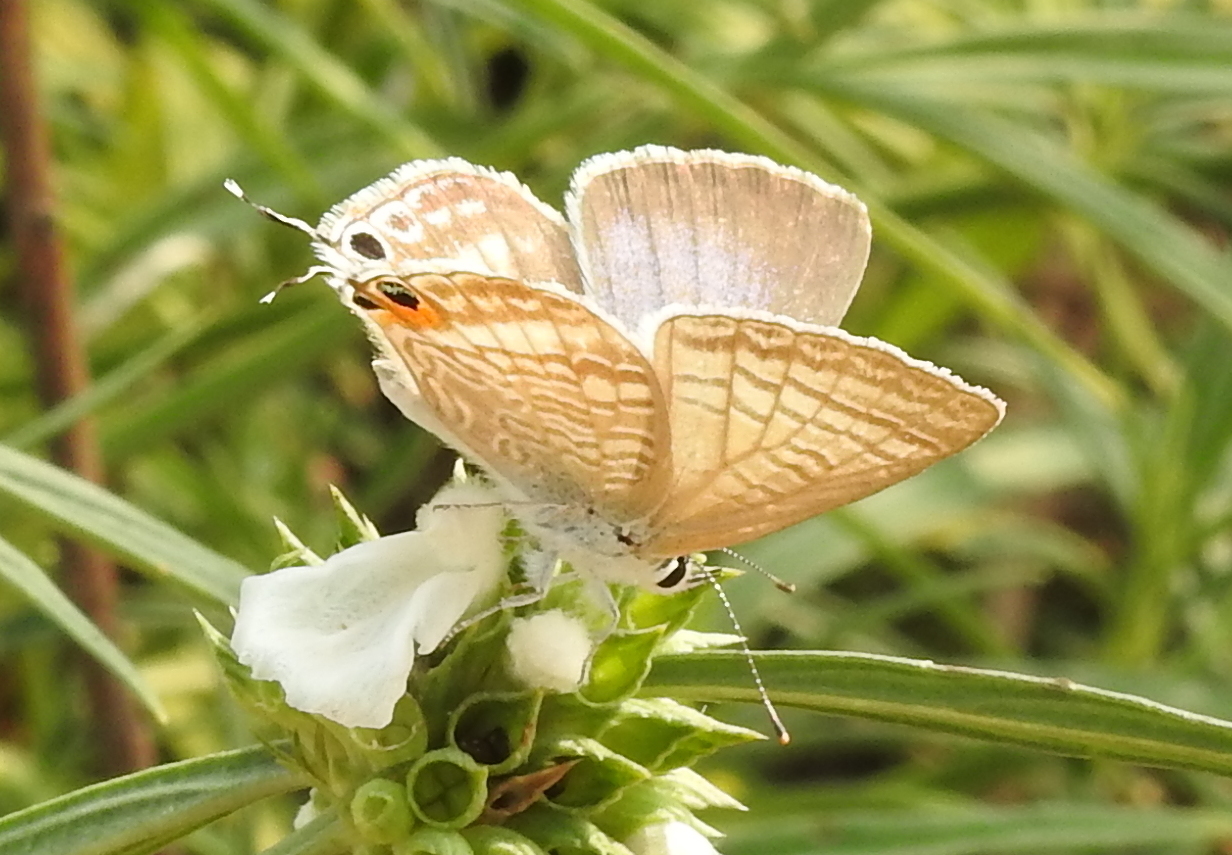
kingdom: Animalia
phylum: Arthropoda
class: Insecta
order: Lepidoptera
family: Lycaenidae
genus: Lampides
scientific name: Lampides boeticus
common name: Long-tailed blue
